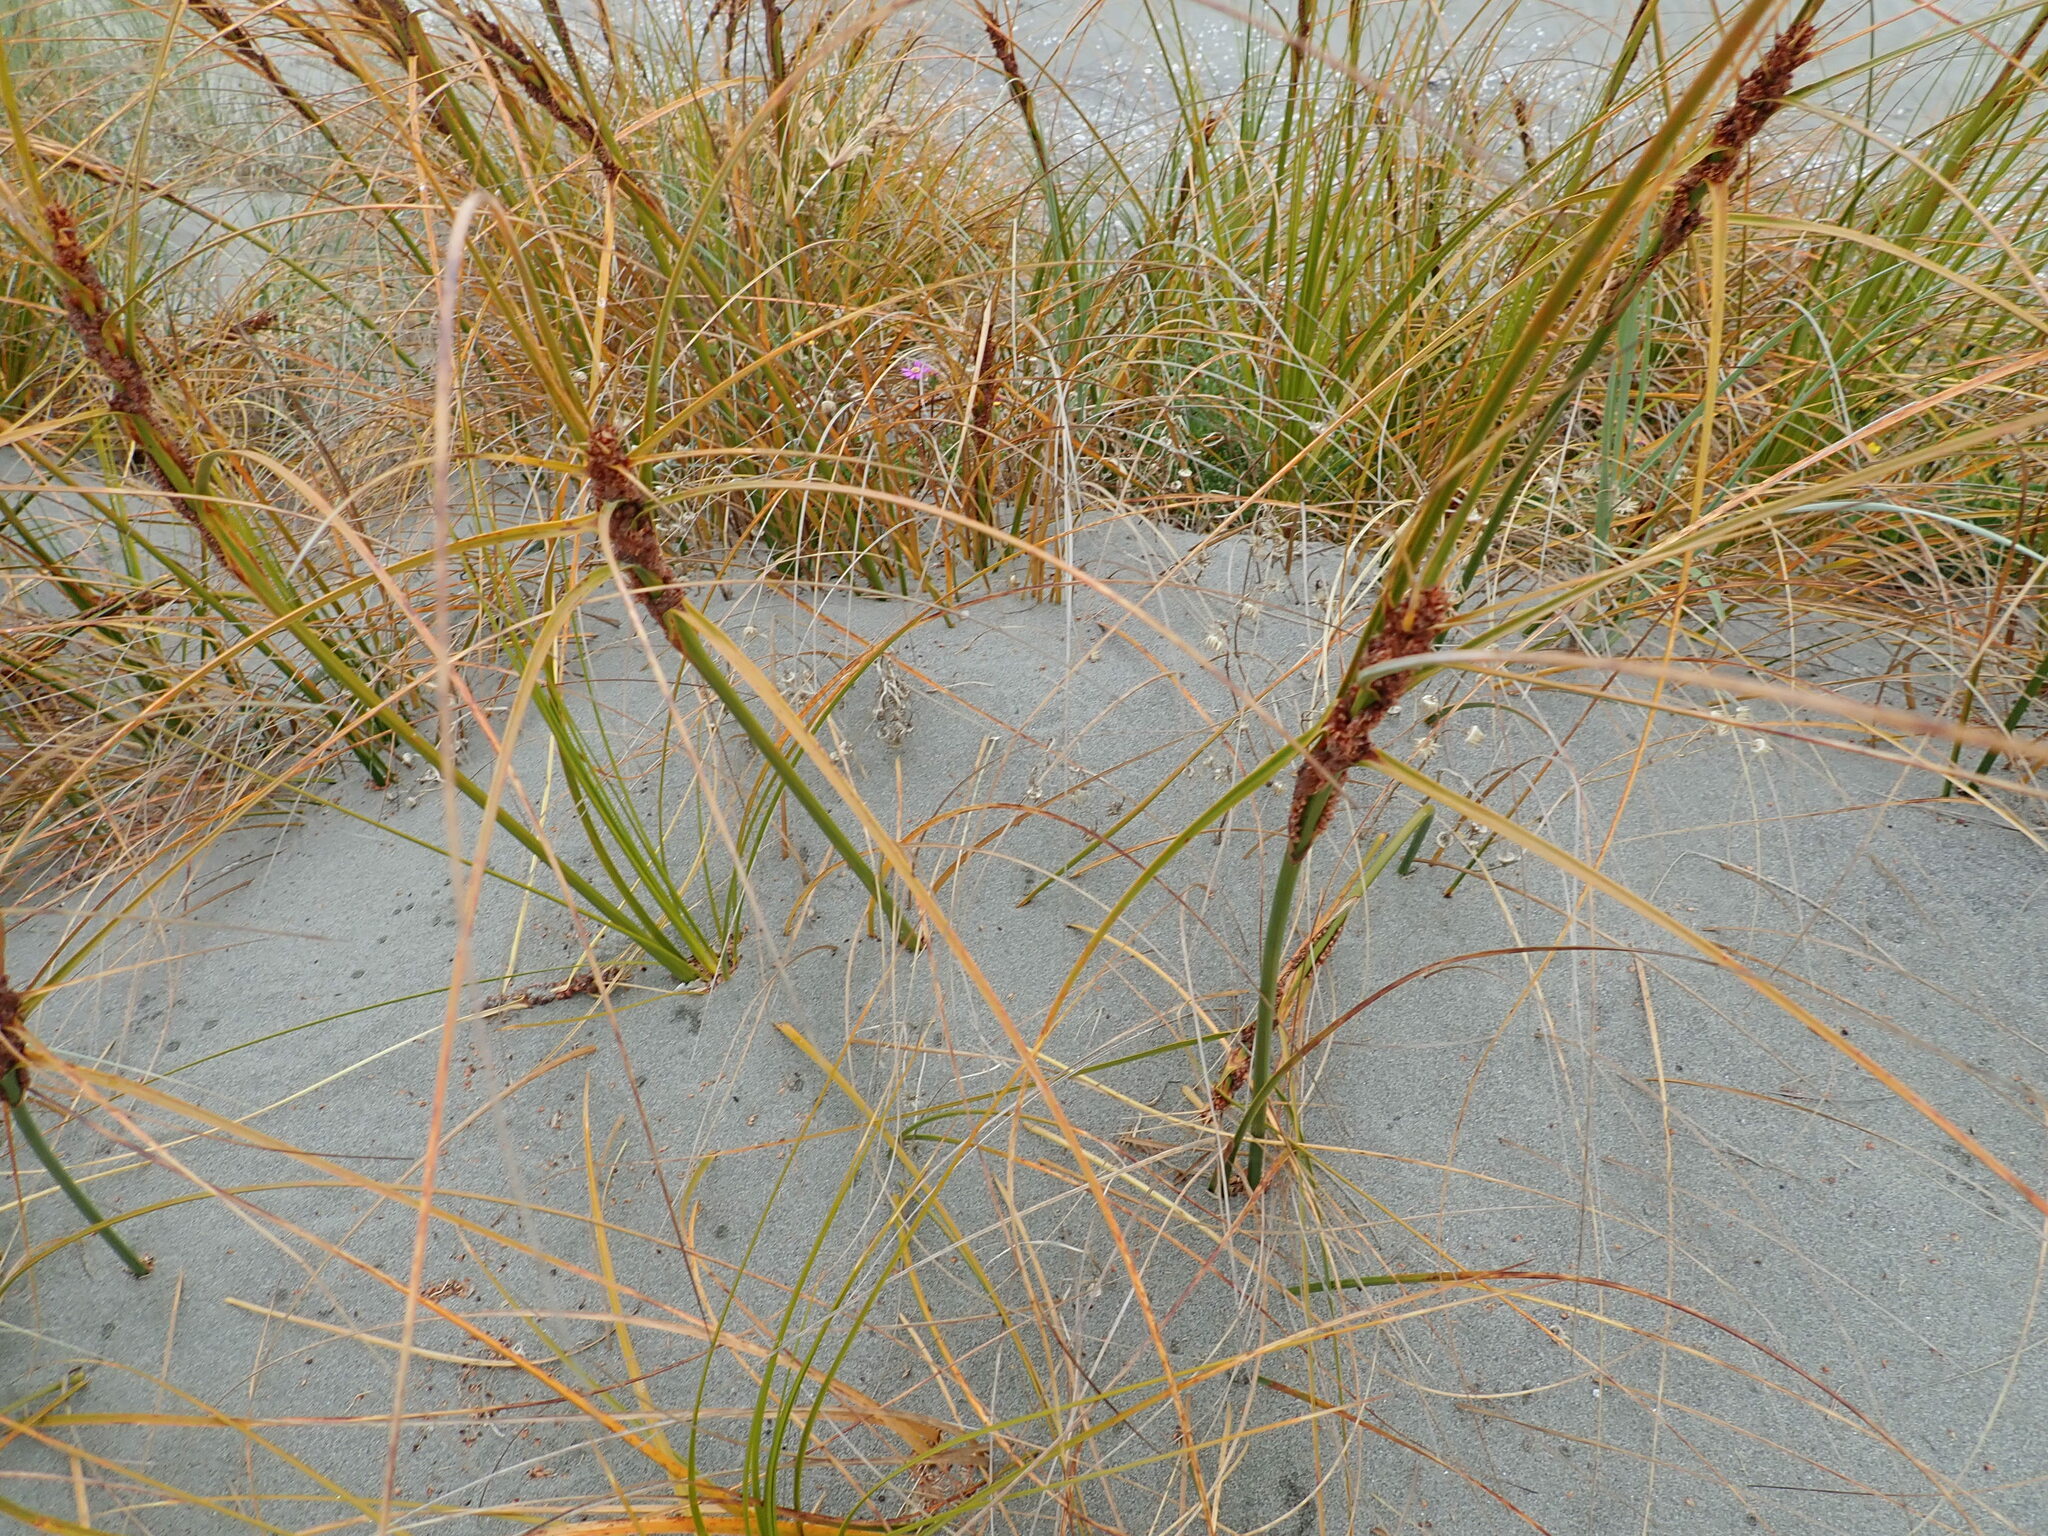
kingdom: Plantae
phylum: Tracheophyta
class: Liliopsida
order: Poales
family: Cyperaceae
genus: Ficinia
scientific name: Ficinia spiralis
